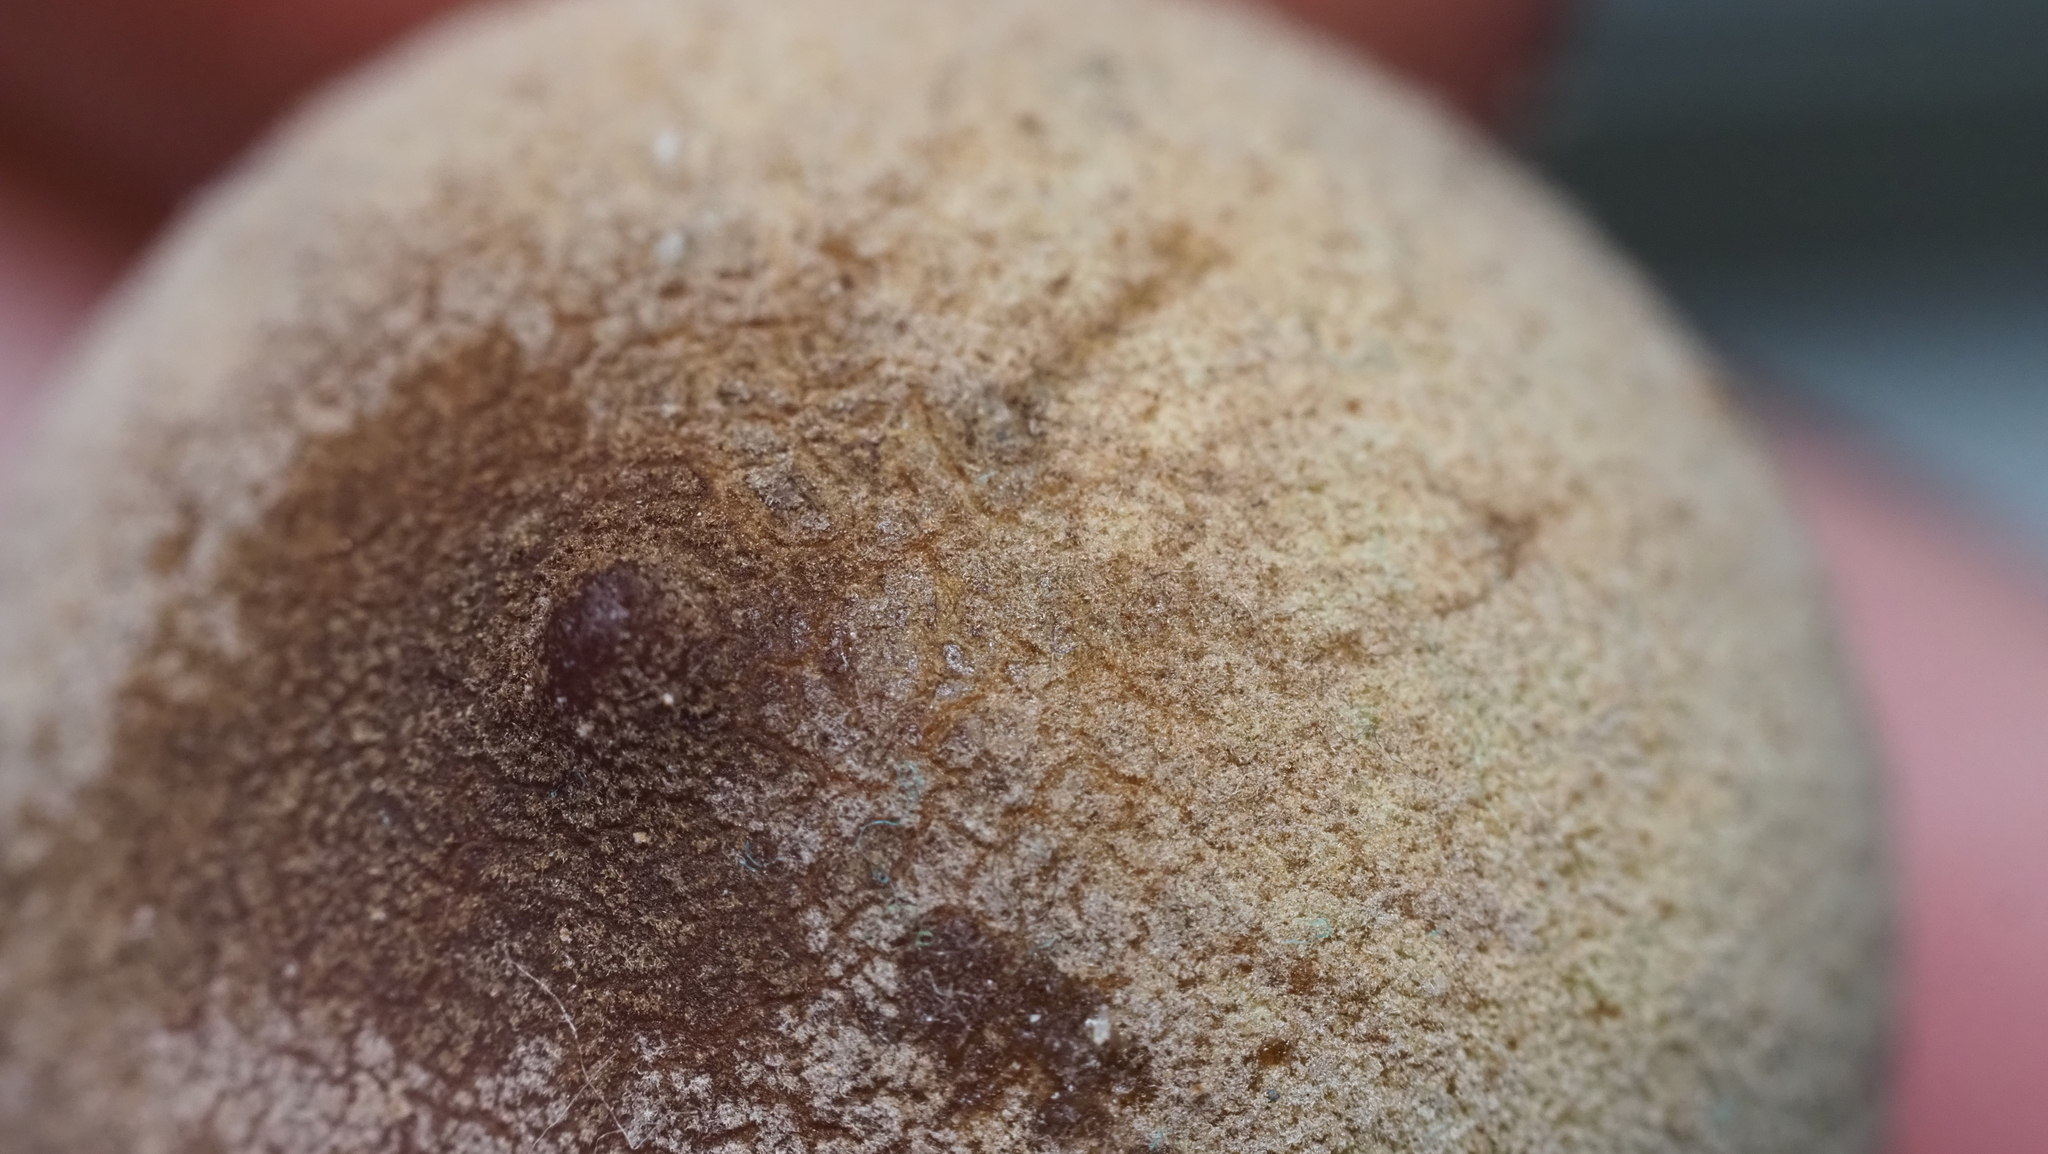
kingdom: Animalia
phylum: Arthropoda
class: Insecta
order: Hymenoptera
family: Cynipidae
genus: Disholcaspis
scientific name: Disholcaspis
